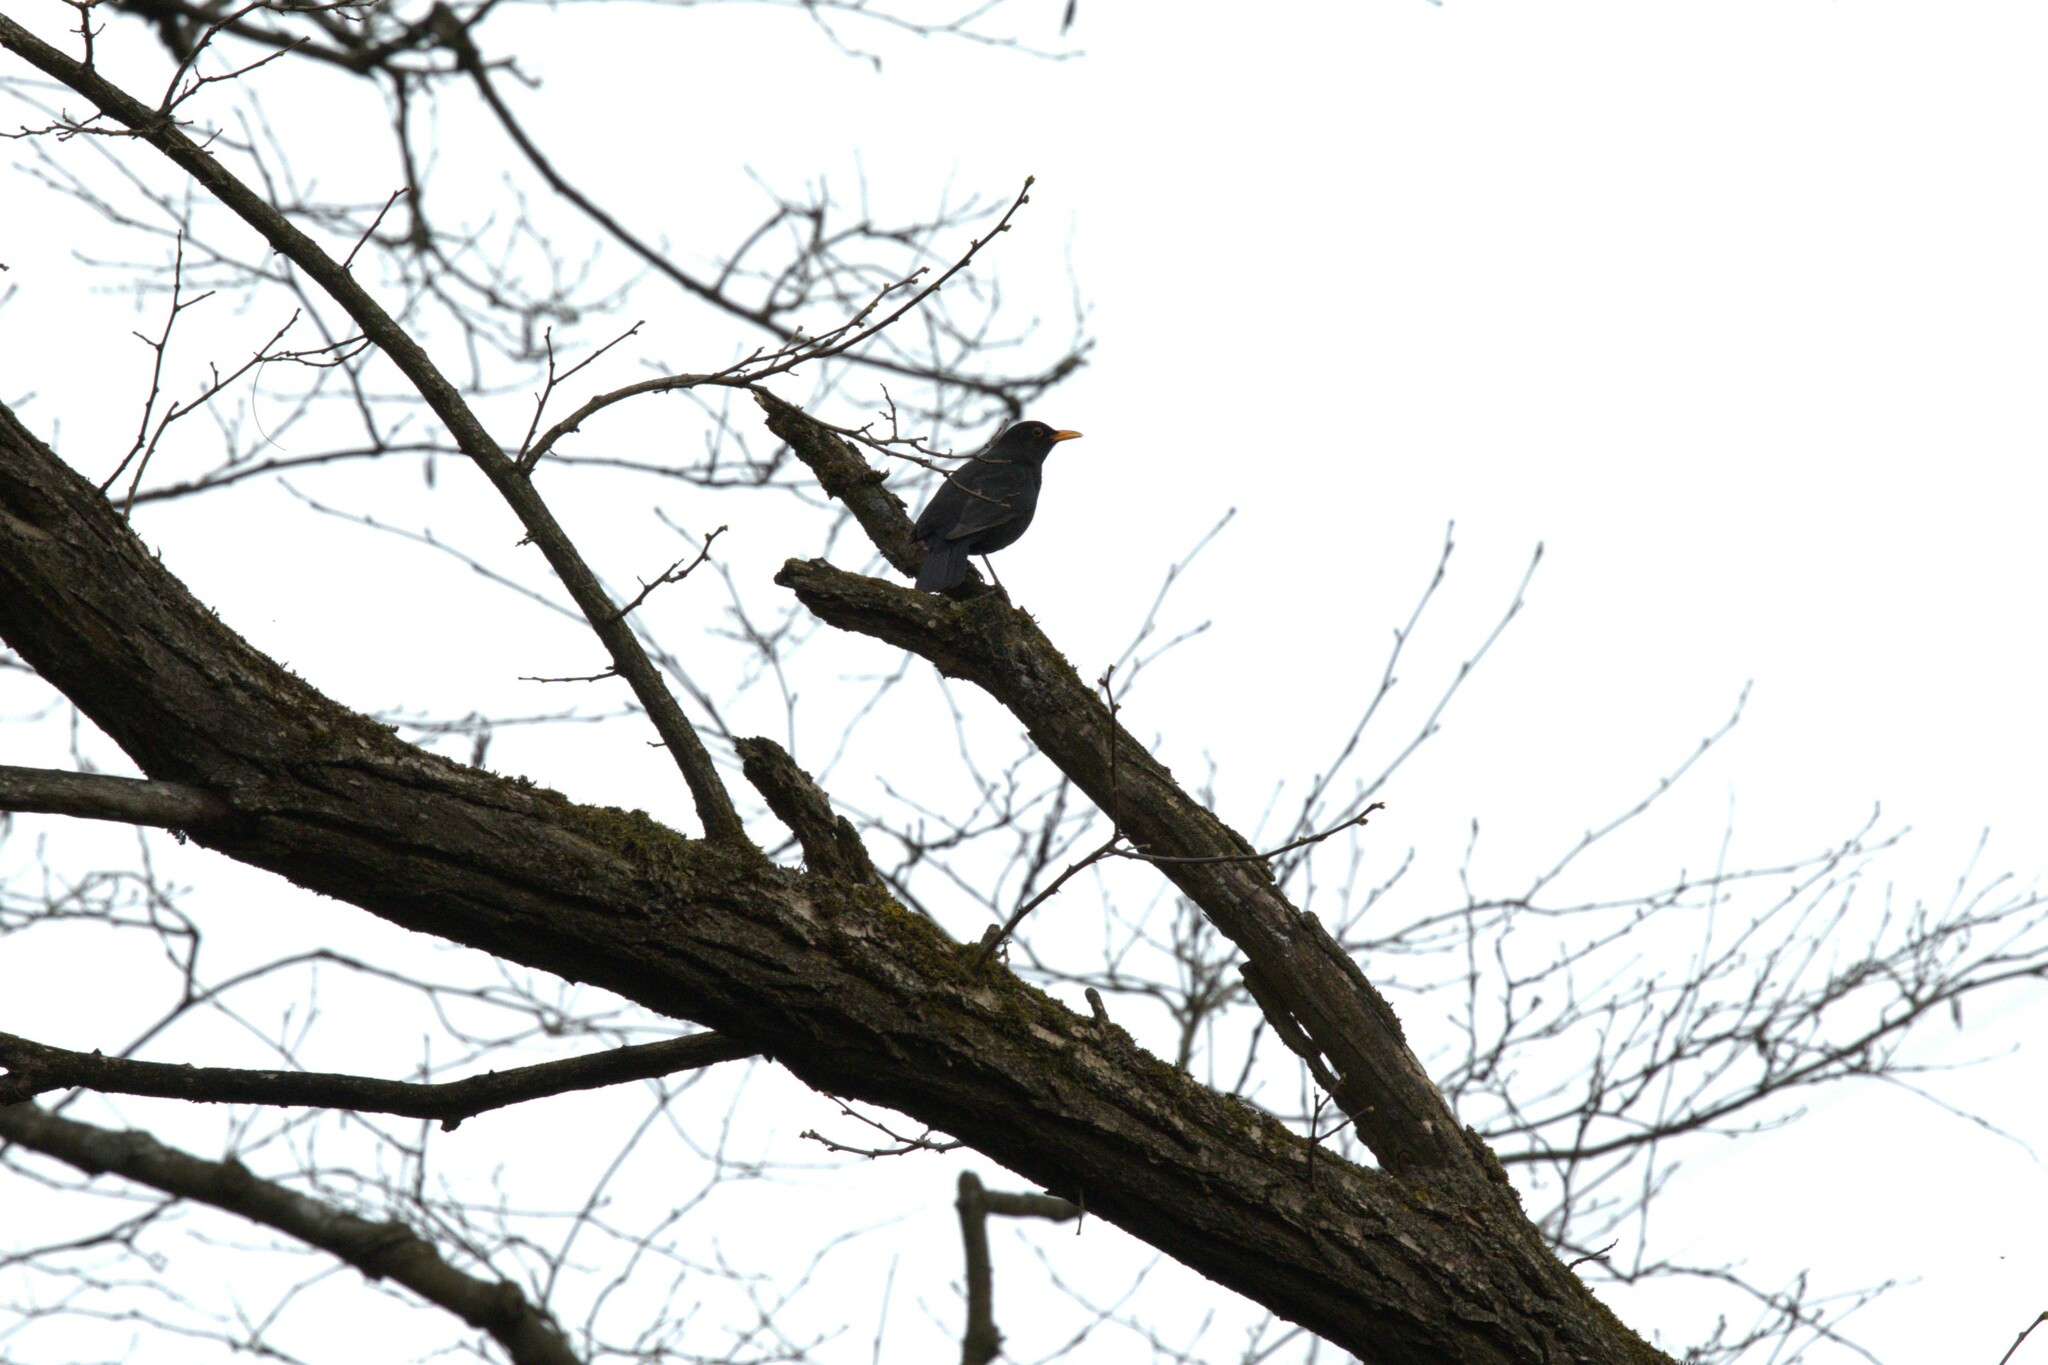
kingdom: Animalia
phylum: Chordata
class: Aves
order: Passeriformes
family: Turdidae
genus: Turdus
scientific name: Turdus merula
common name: Common blackbird
